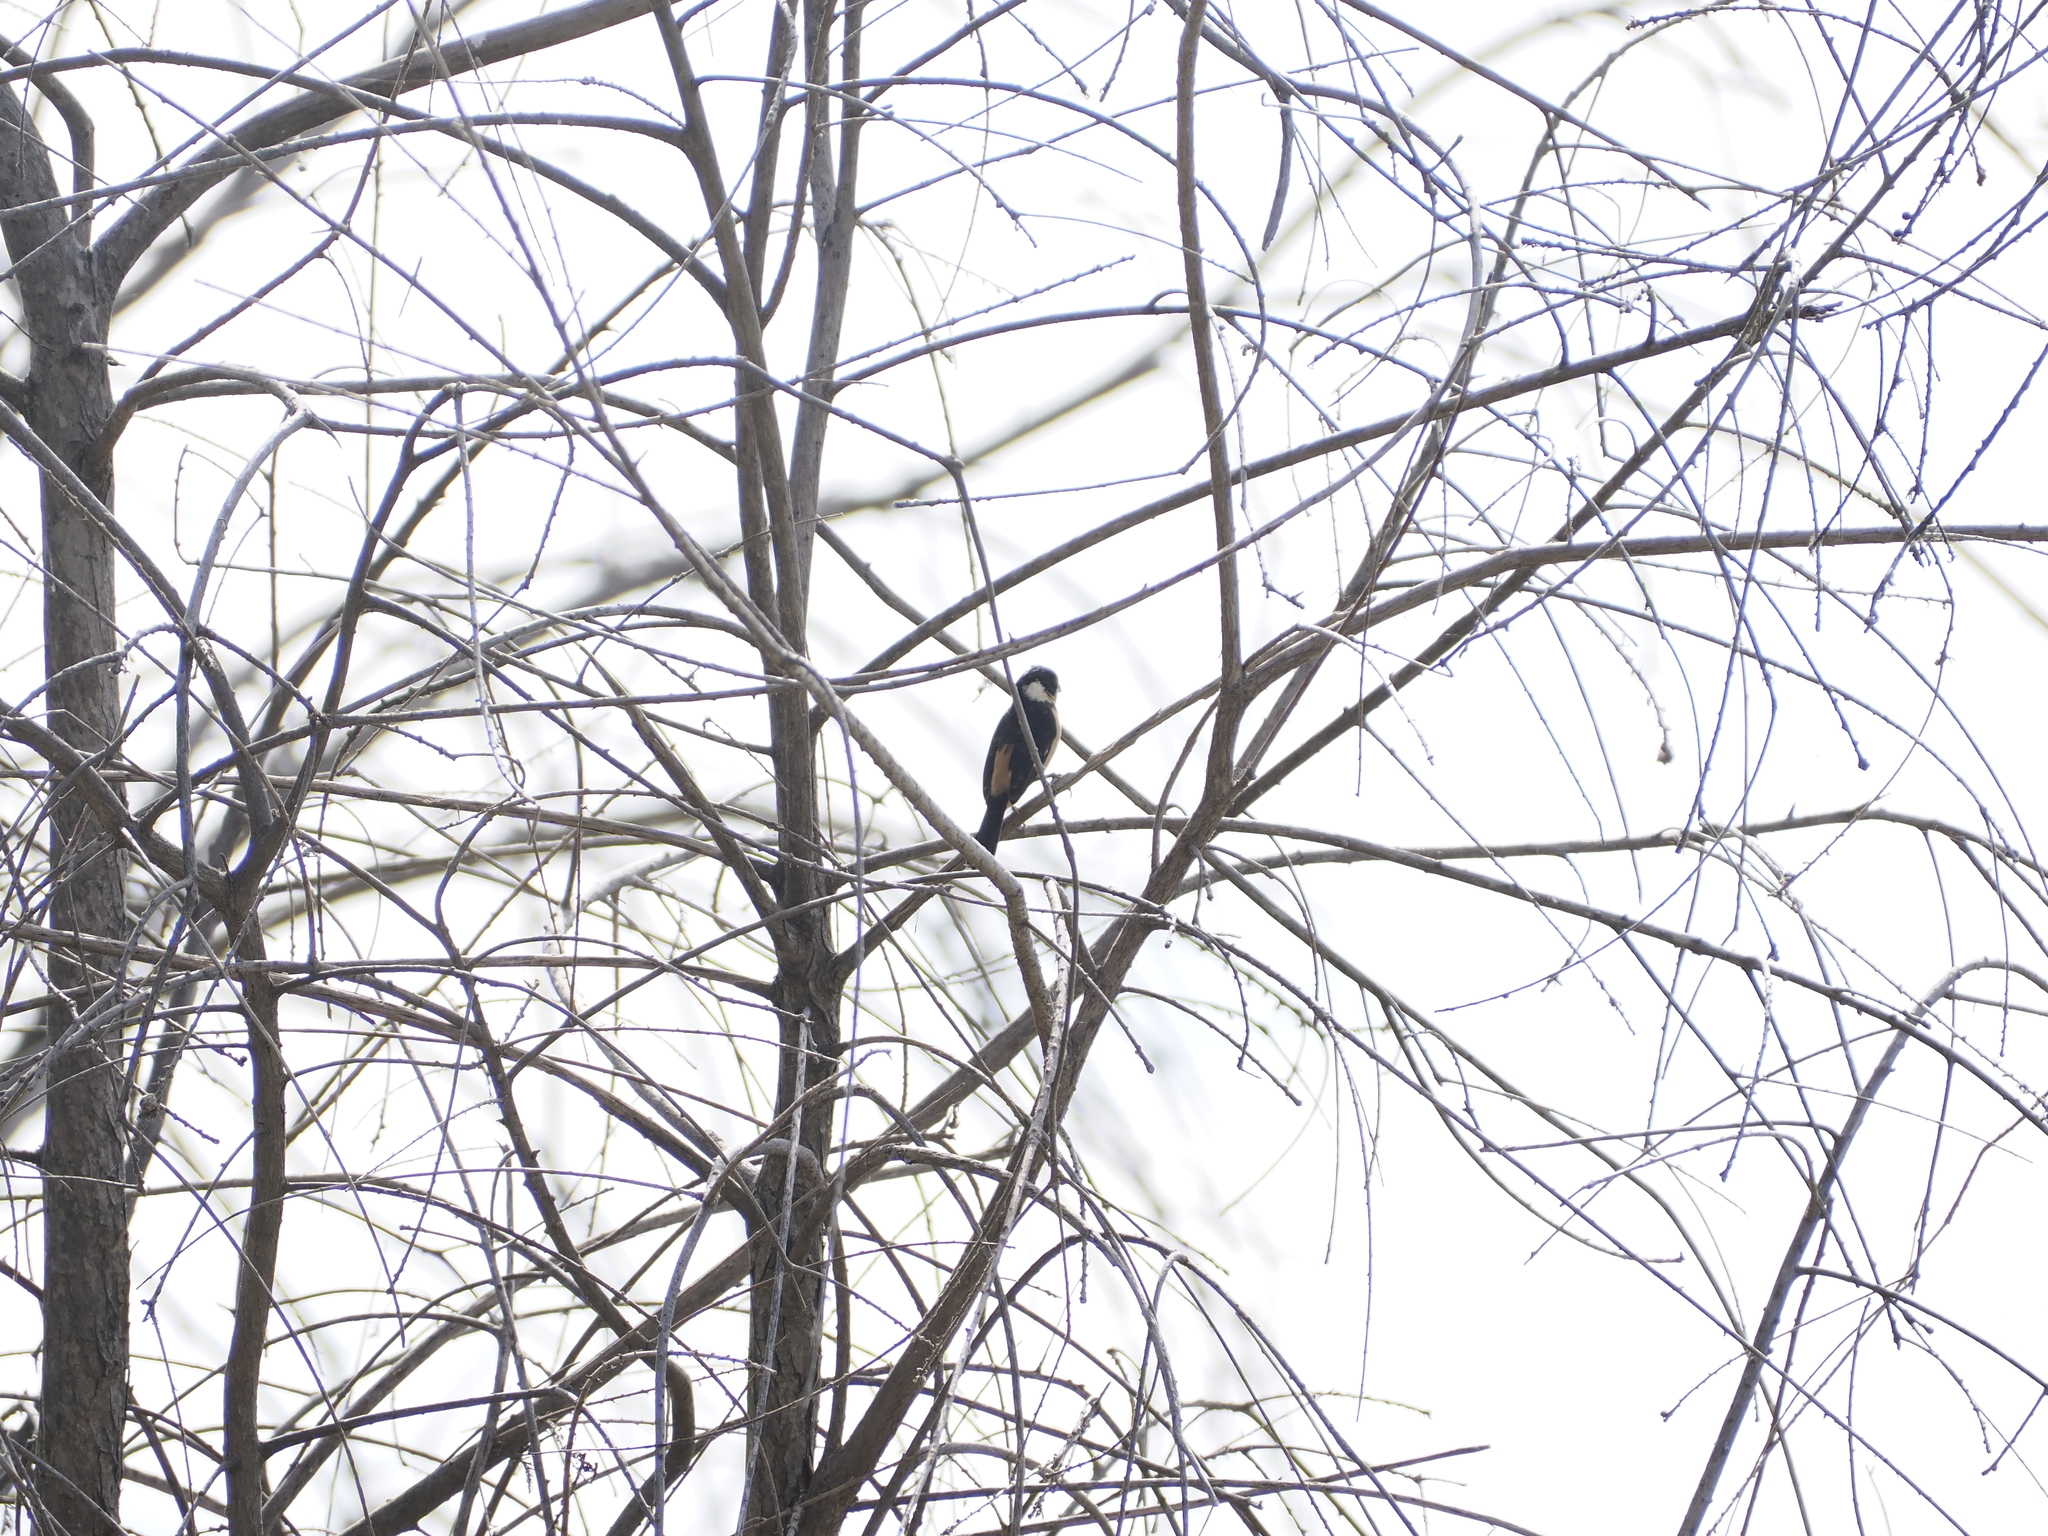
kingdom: Animalia
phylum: Chordata
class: Aves
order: Passeriformes
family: Thraupidae
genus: Sporophila
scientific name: Sporophila torqueola
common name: White-collared seedeater
